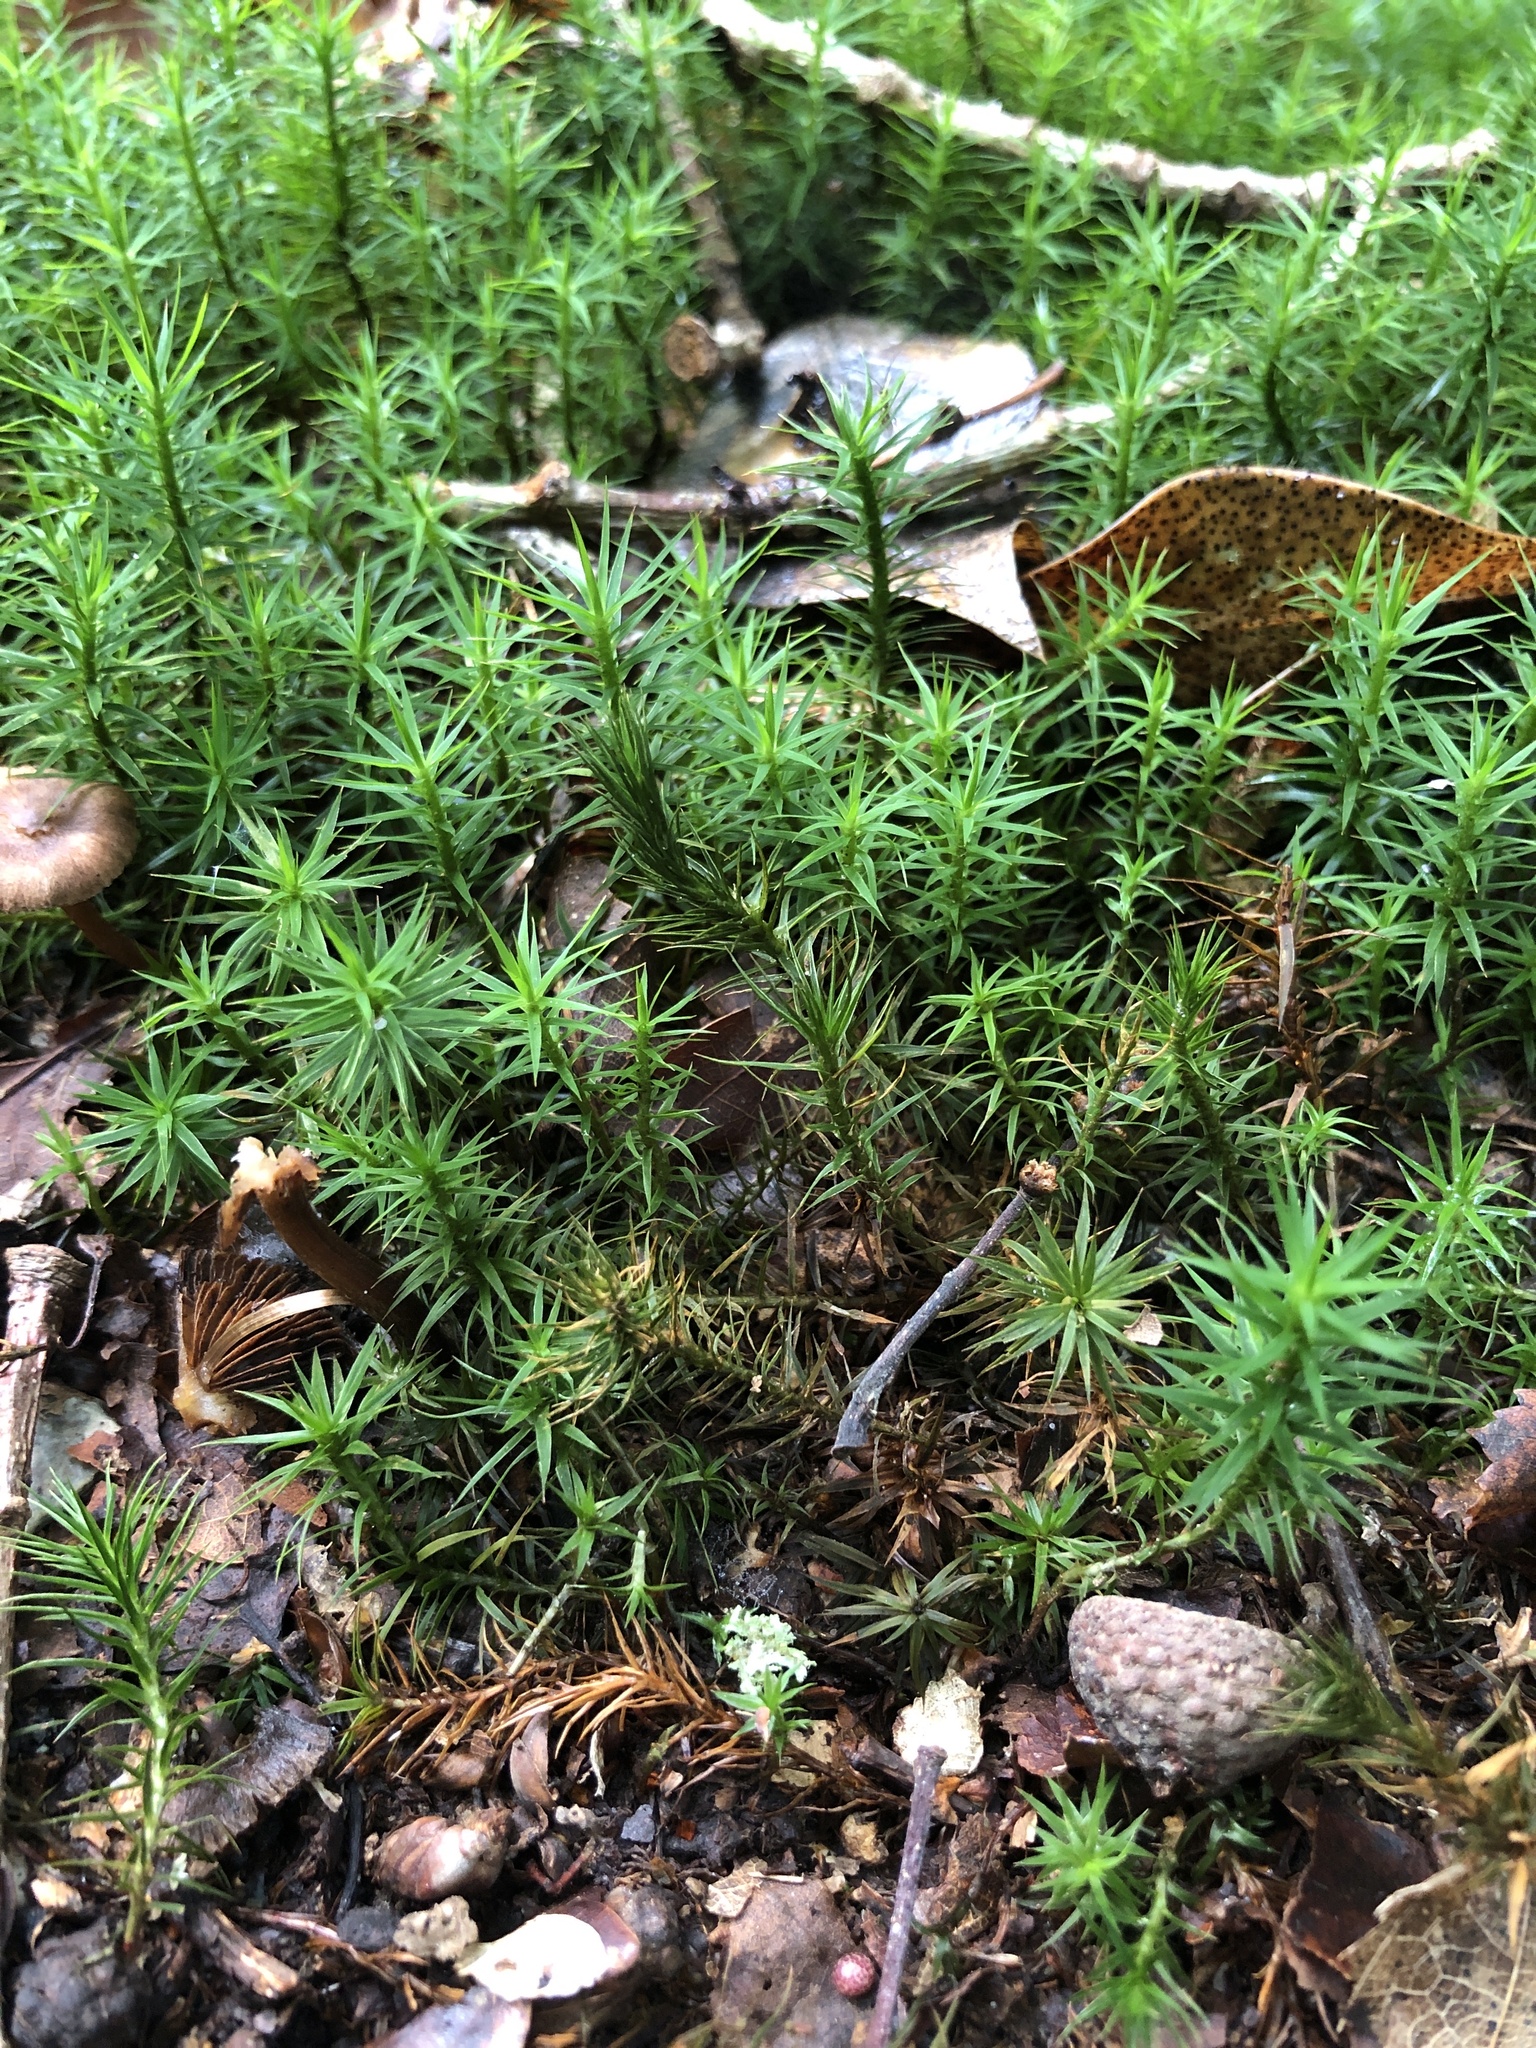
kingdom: Plantae
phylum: Bryophyta
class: Polytrichopsida
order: Polytrichales
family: Polytrichaceae
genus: Polytrichum
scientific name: Polytrichum formosum
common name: Bank haircap moss
